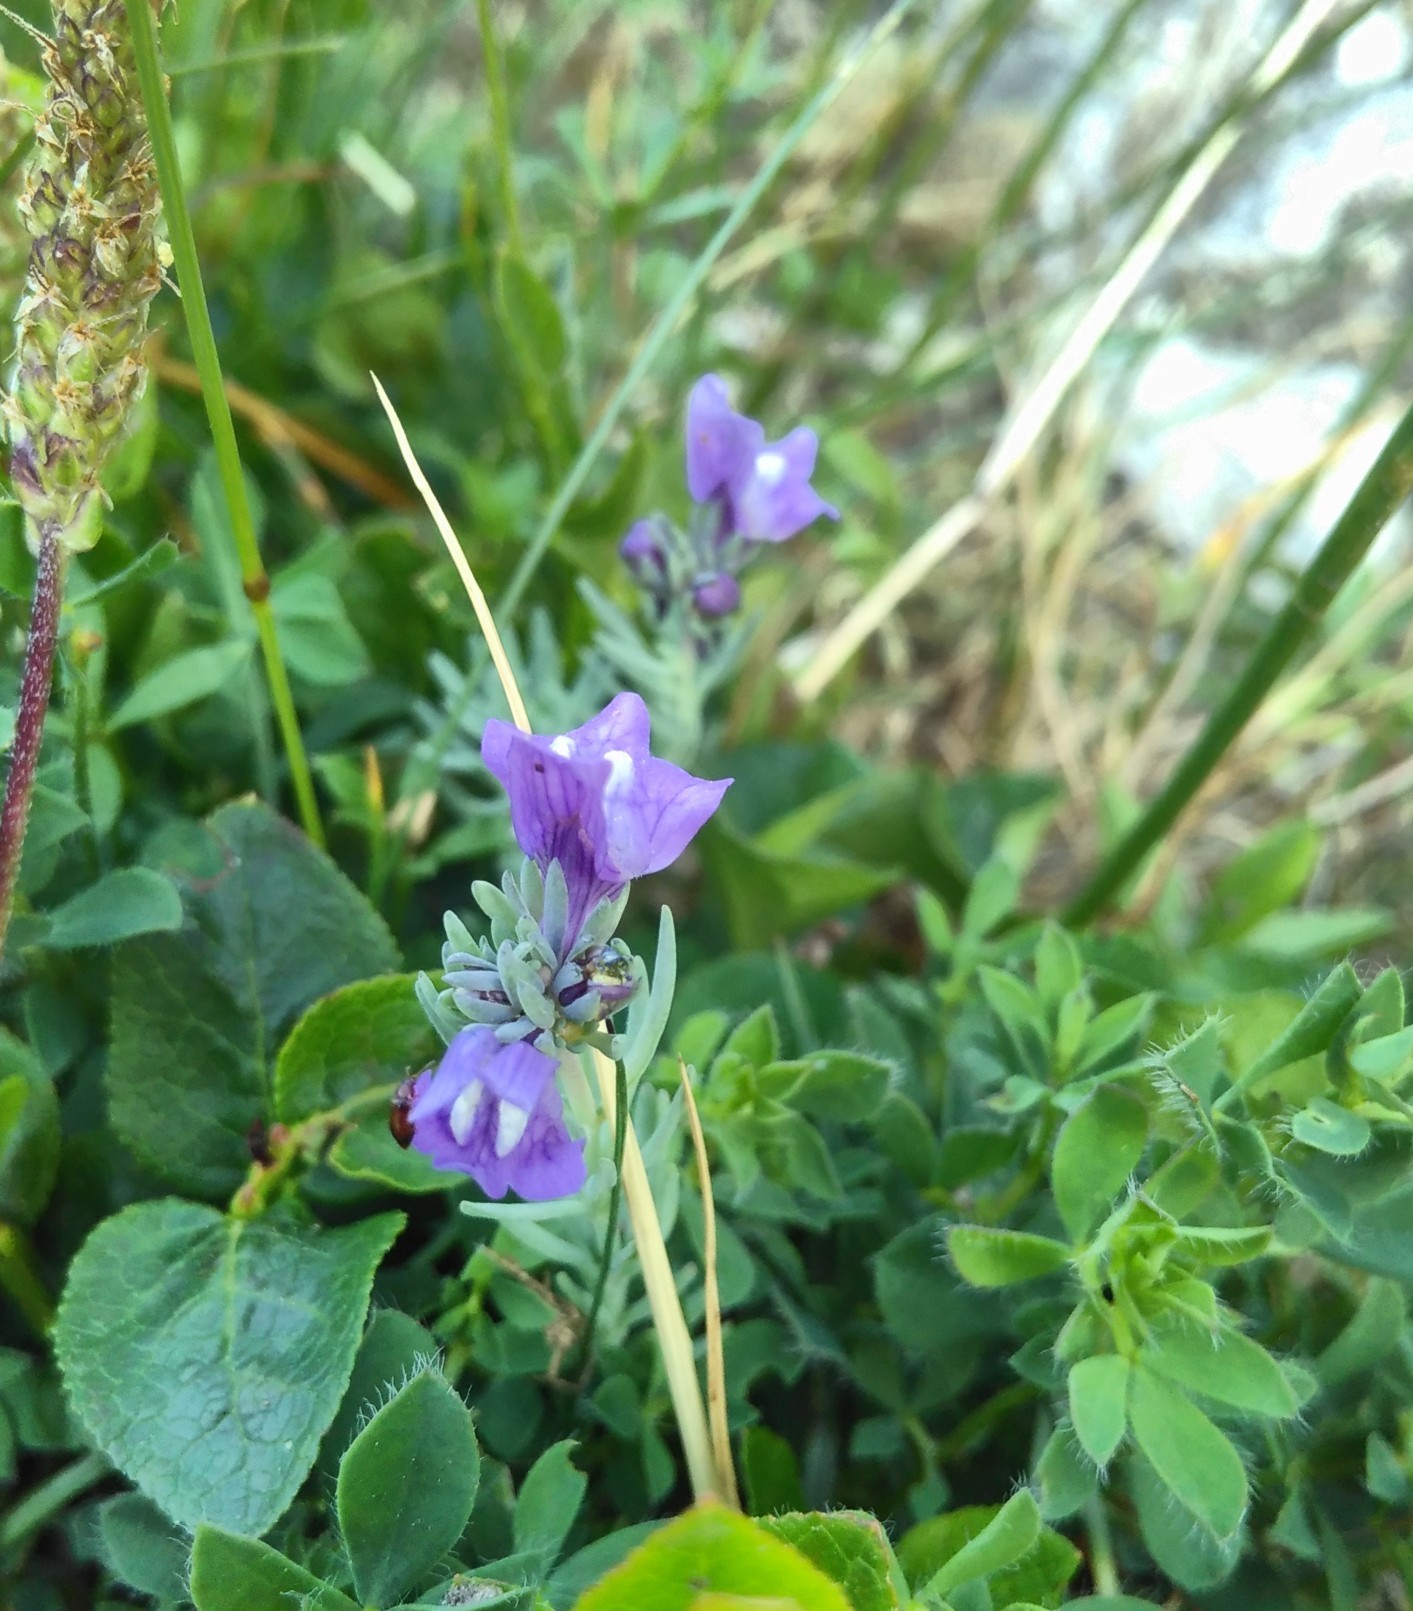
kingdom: Plantae
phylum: Tracheophyta
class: Magnoliopsida
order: Lamiales
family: Plantaginaceae
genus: Linaria
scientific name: Linaria alpina
